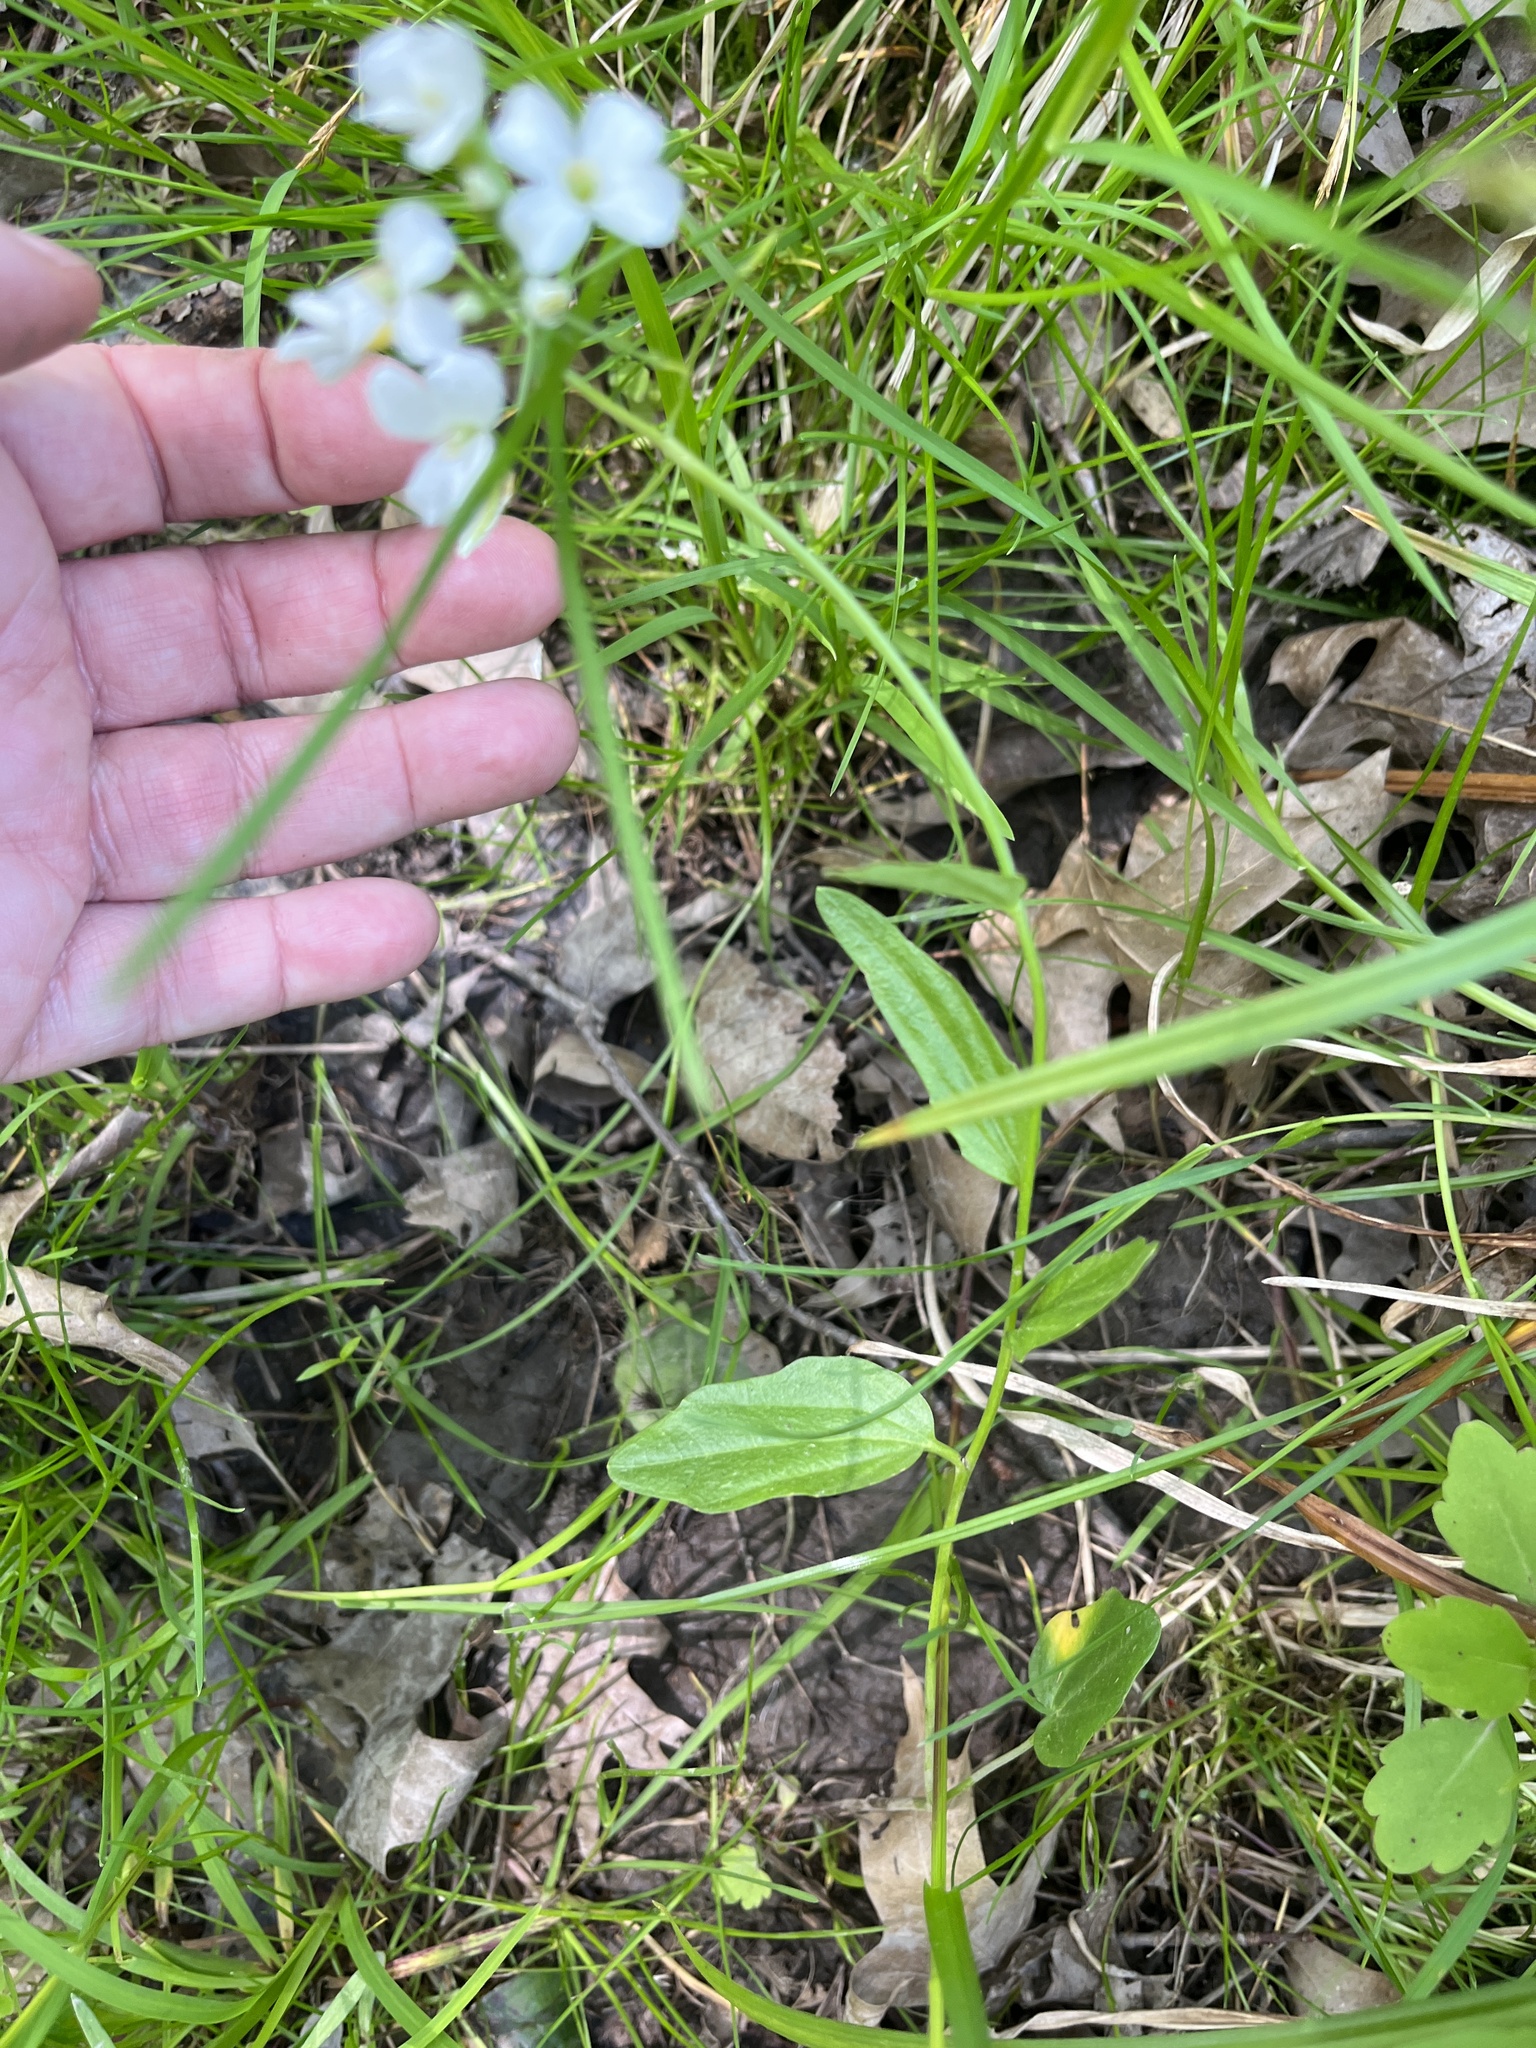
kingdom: Plantae
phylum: Tracheophyta
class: Magnoliopsida
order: Brassicales
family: Brassicaceae
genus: Cardamine
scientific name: Cardamine bulbosa
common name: Spring cress
